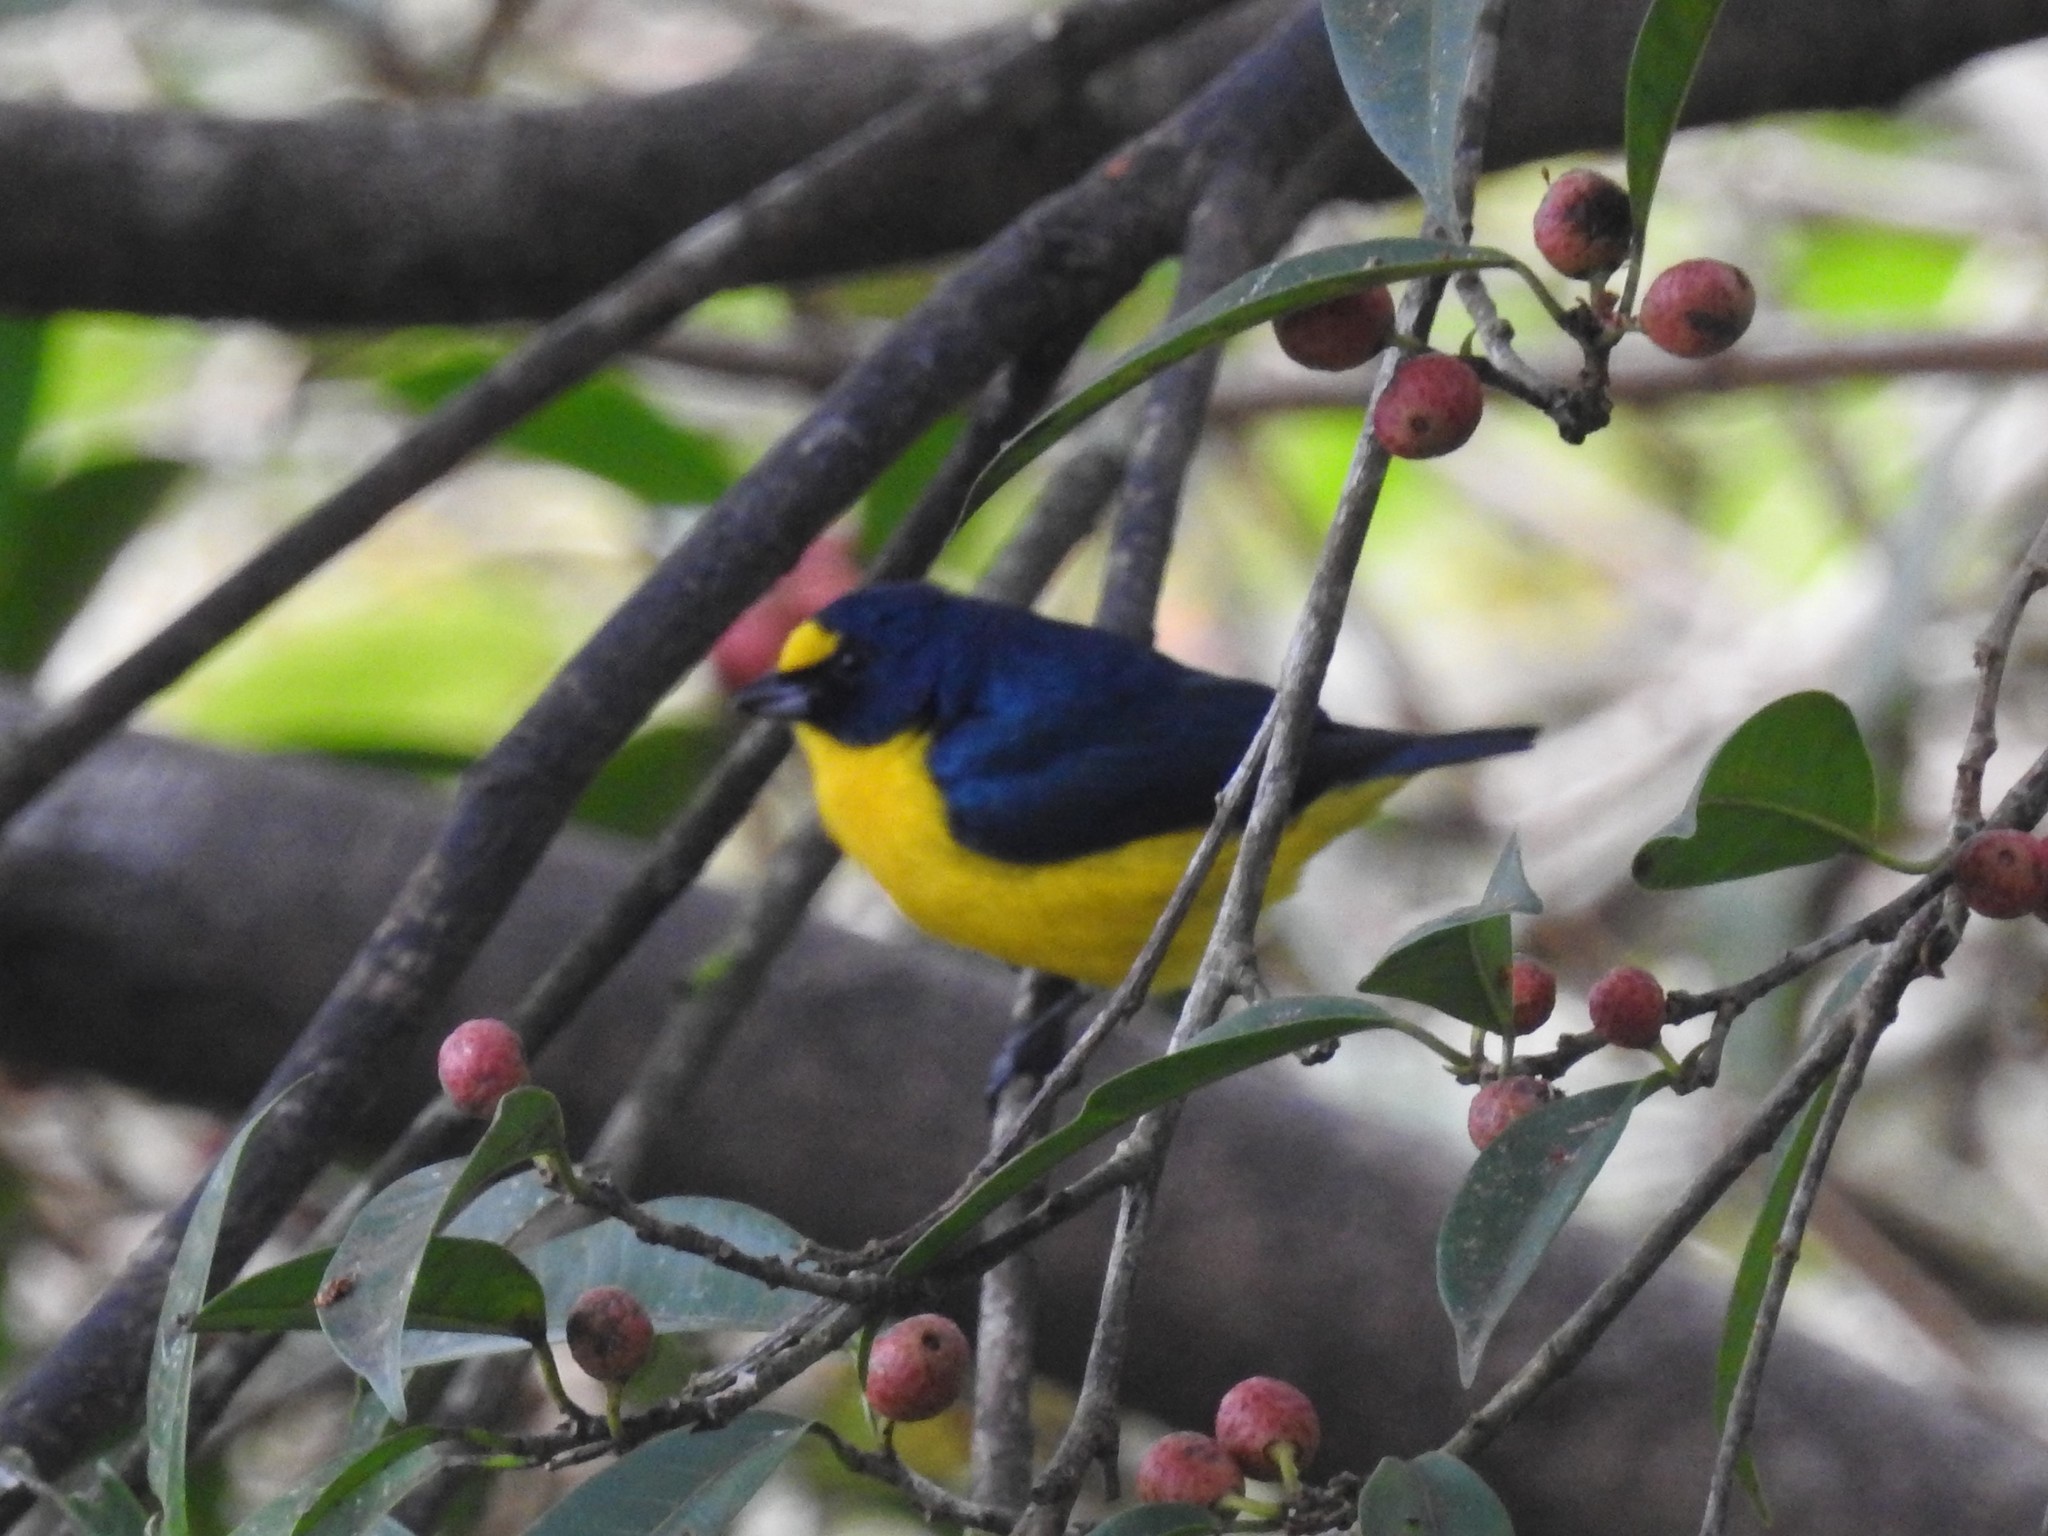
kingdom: Animalia
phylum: Chordata
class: Aves
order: Passeriformes
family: Fringillidae
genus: Euphonia
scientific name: Euphonia hirundinacea
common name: Yellow-throated euphonia
